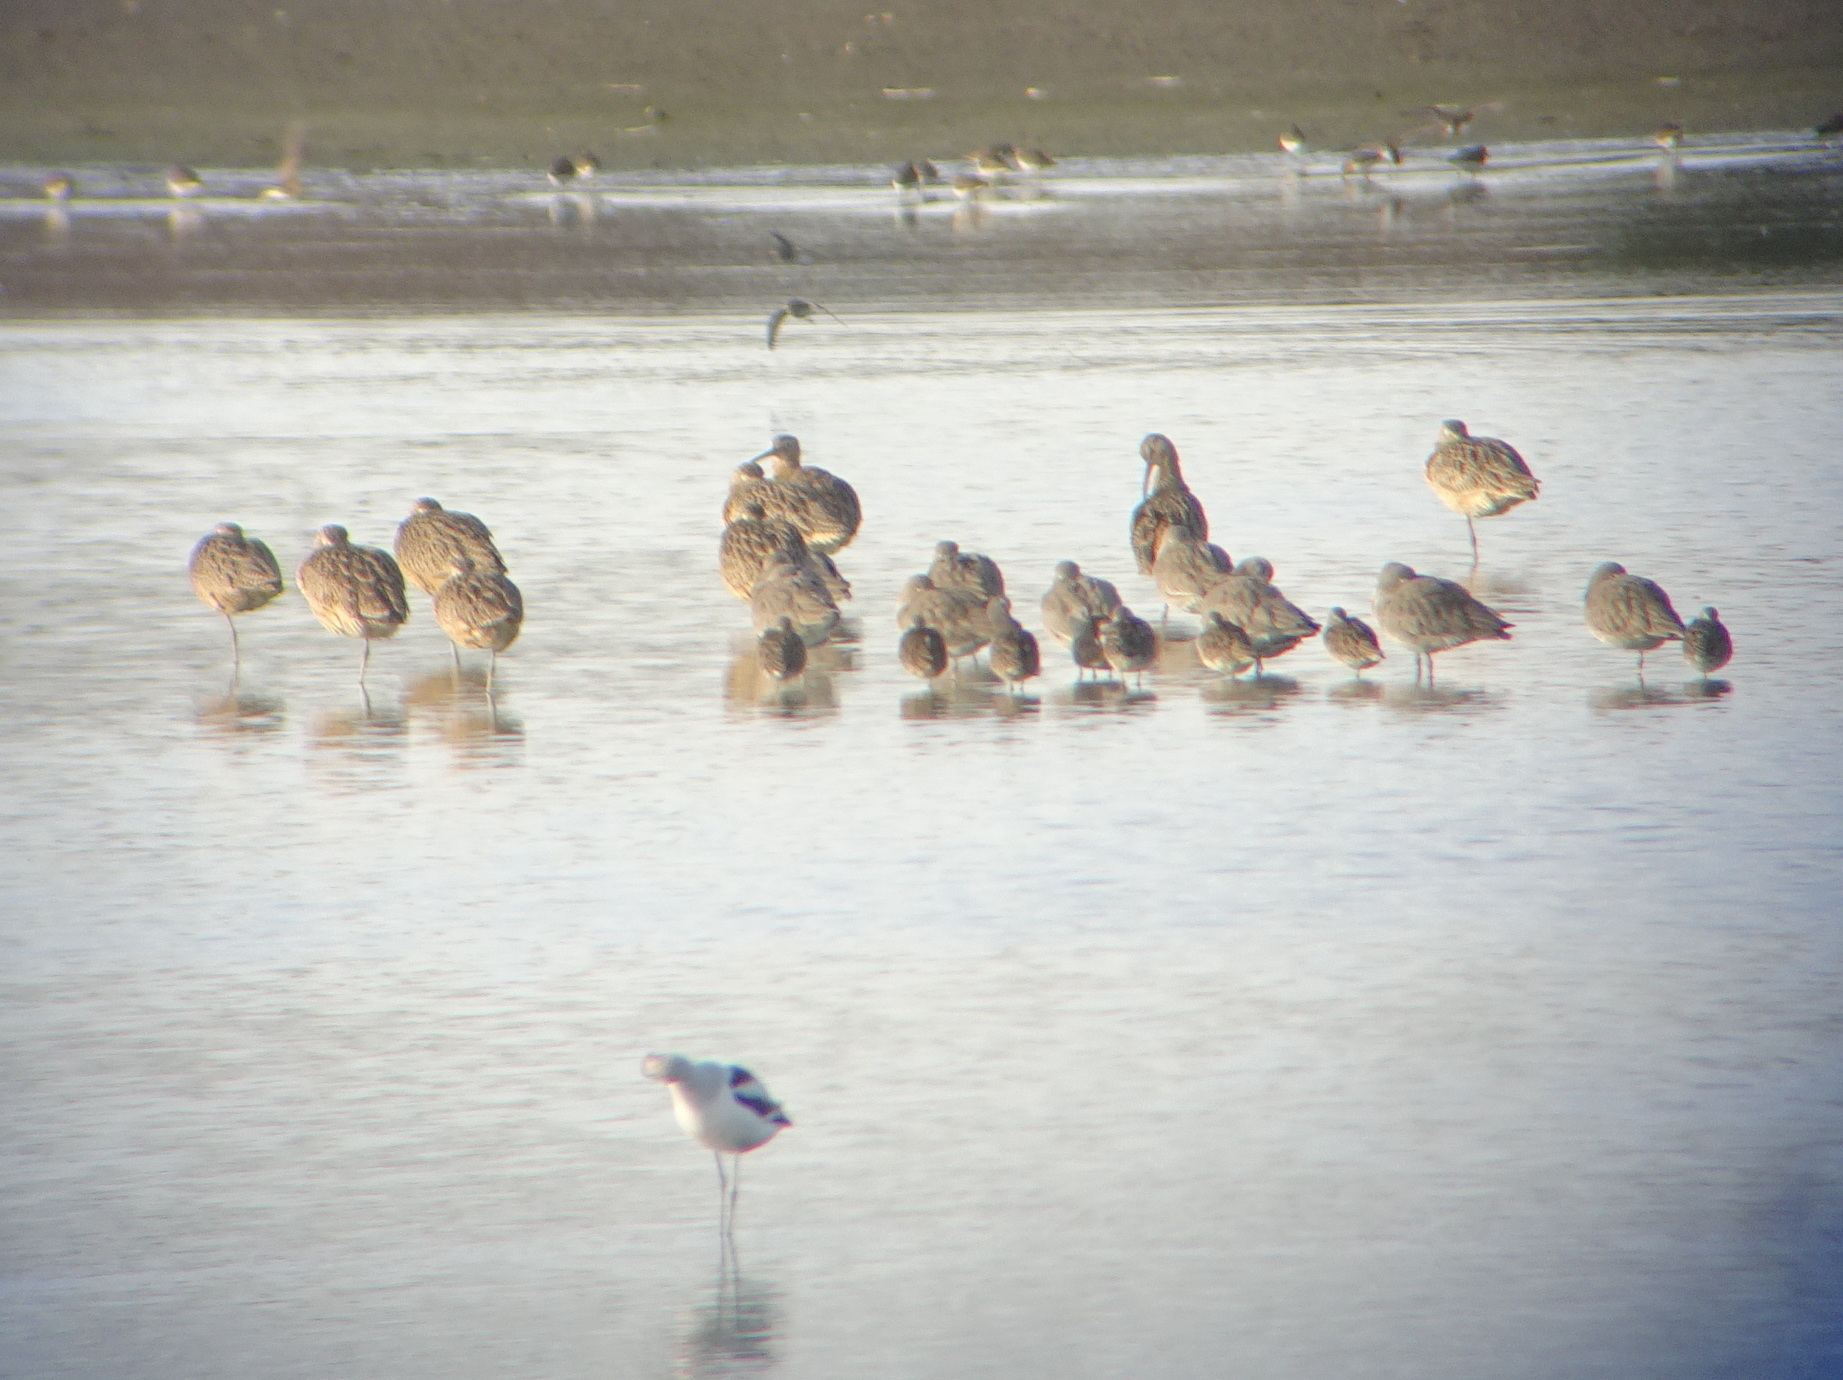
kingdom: Animalia
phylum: Chordata
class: Aves
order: Charadriiformes
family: Scolopacidae
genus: Numenius
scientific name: Numenius americanus
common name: Long-billed curlew
